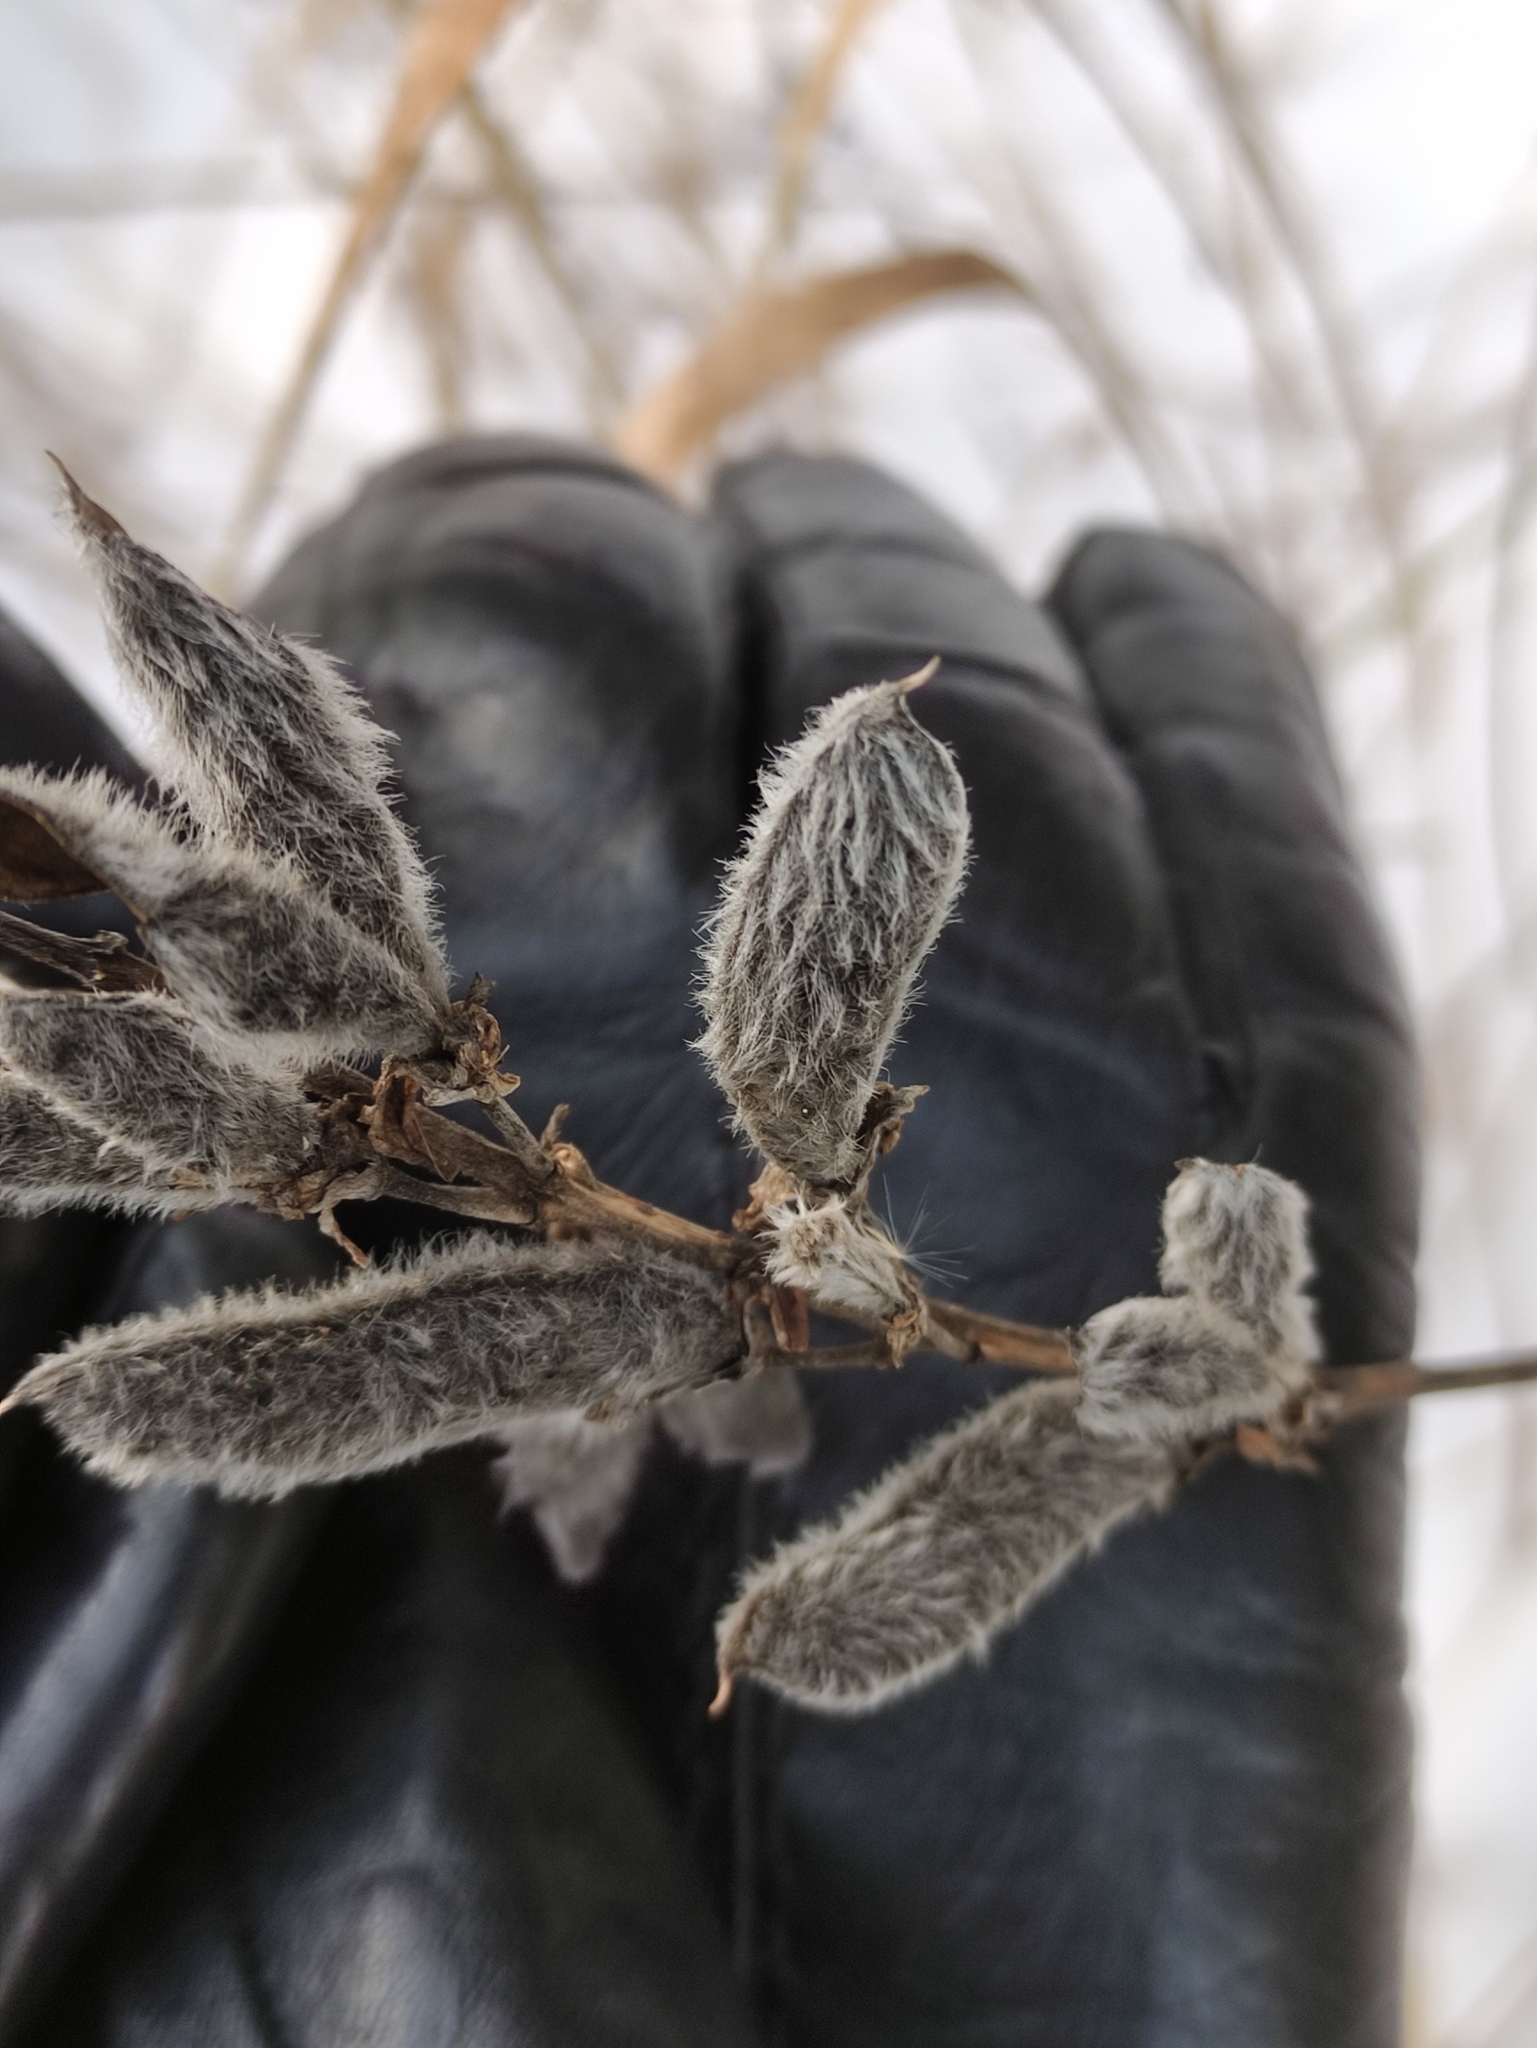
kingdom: Plantae
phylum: Tracheophyta
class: Magnoliopsida
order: Fabales
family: Fabaceae
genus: Lupinus
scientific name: Lupinus polyphyllus
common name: Garden lupin
